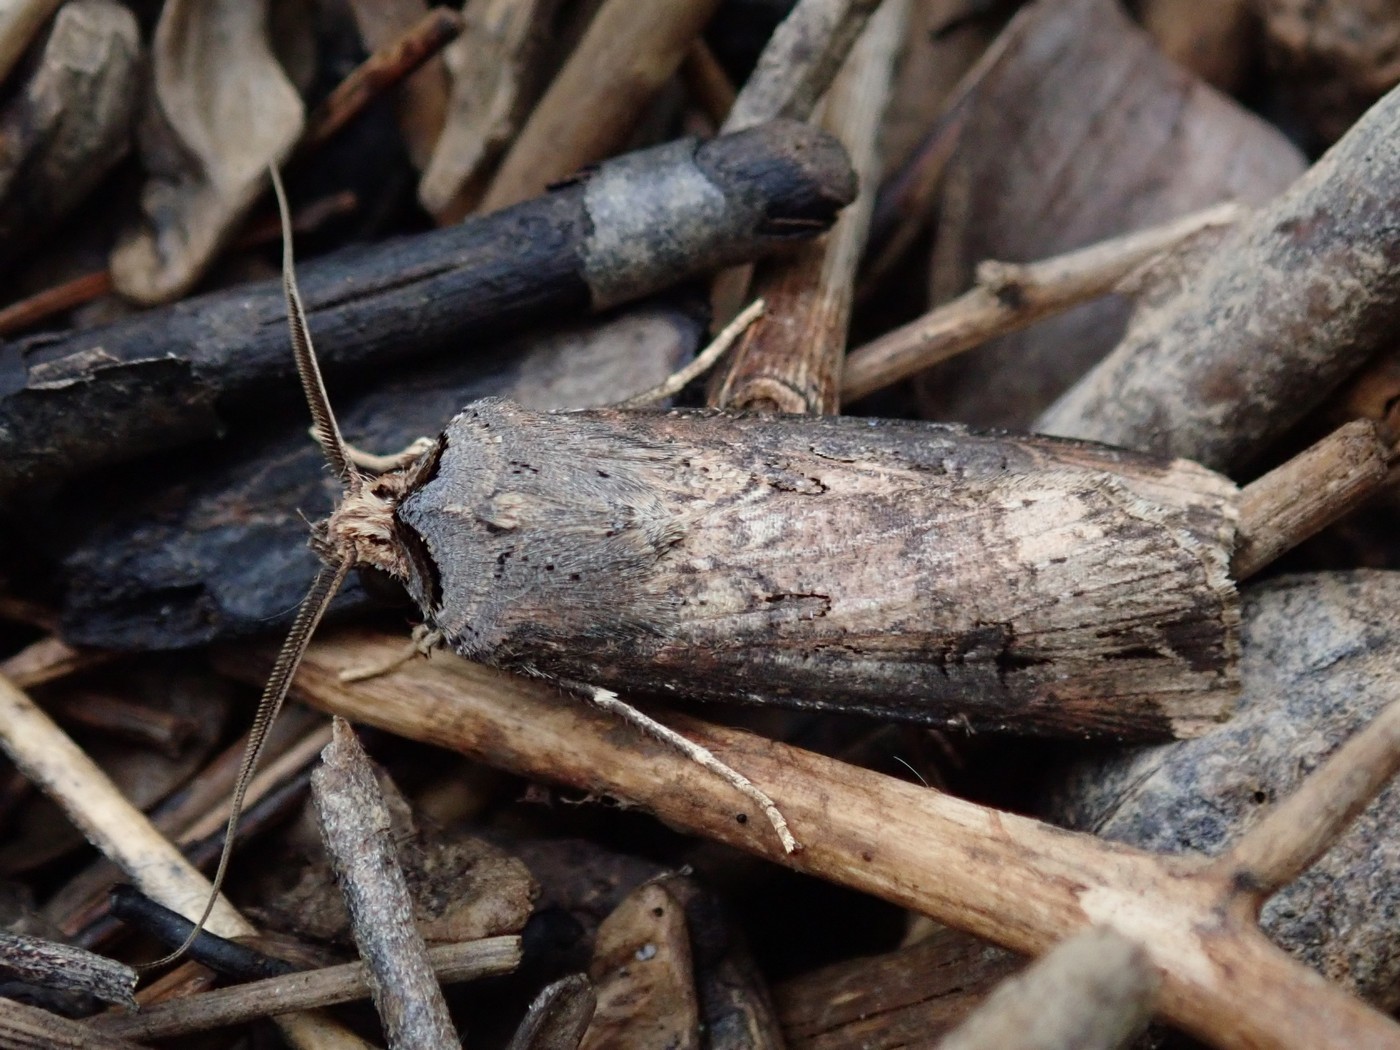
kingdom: Animalia
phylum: Arthropoda
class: Insecta
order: Lepidoptera
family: Noctuidae
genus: Agrotis
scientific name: Agrotis ipsilon
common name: Dark sword-grass
